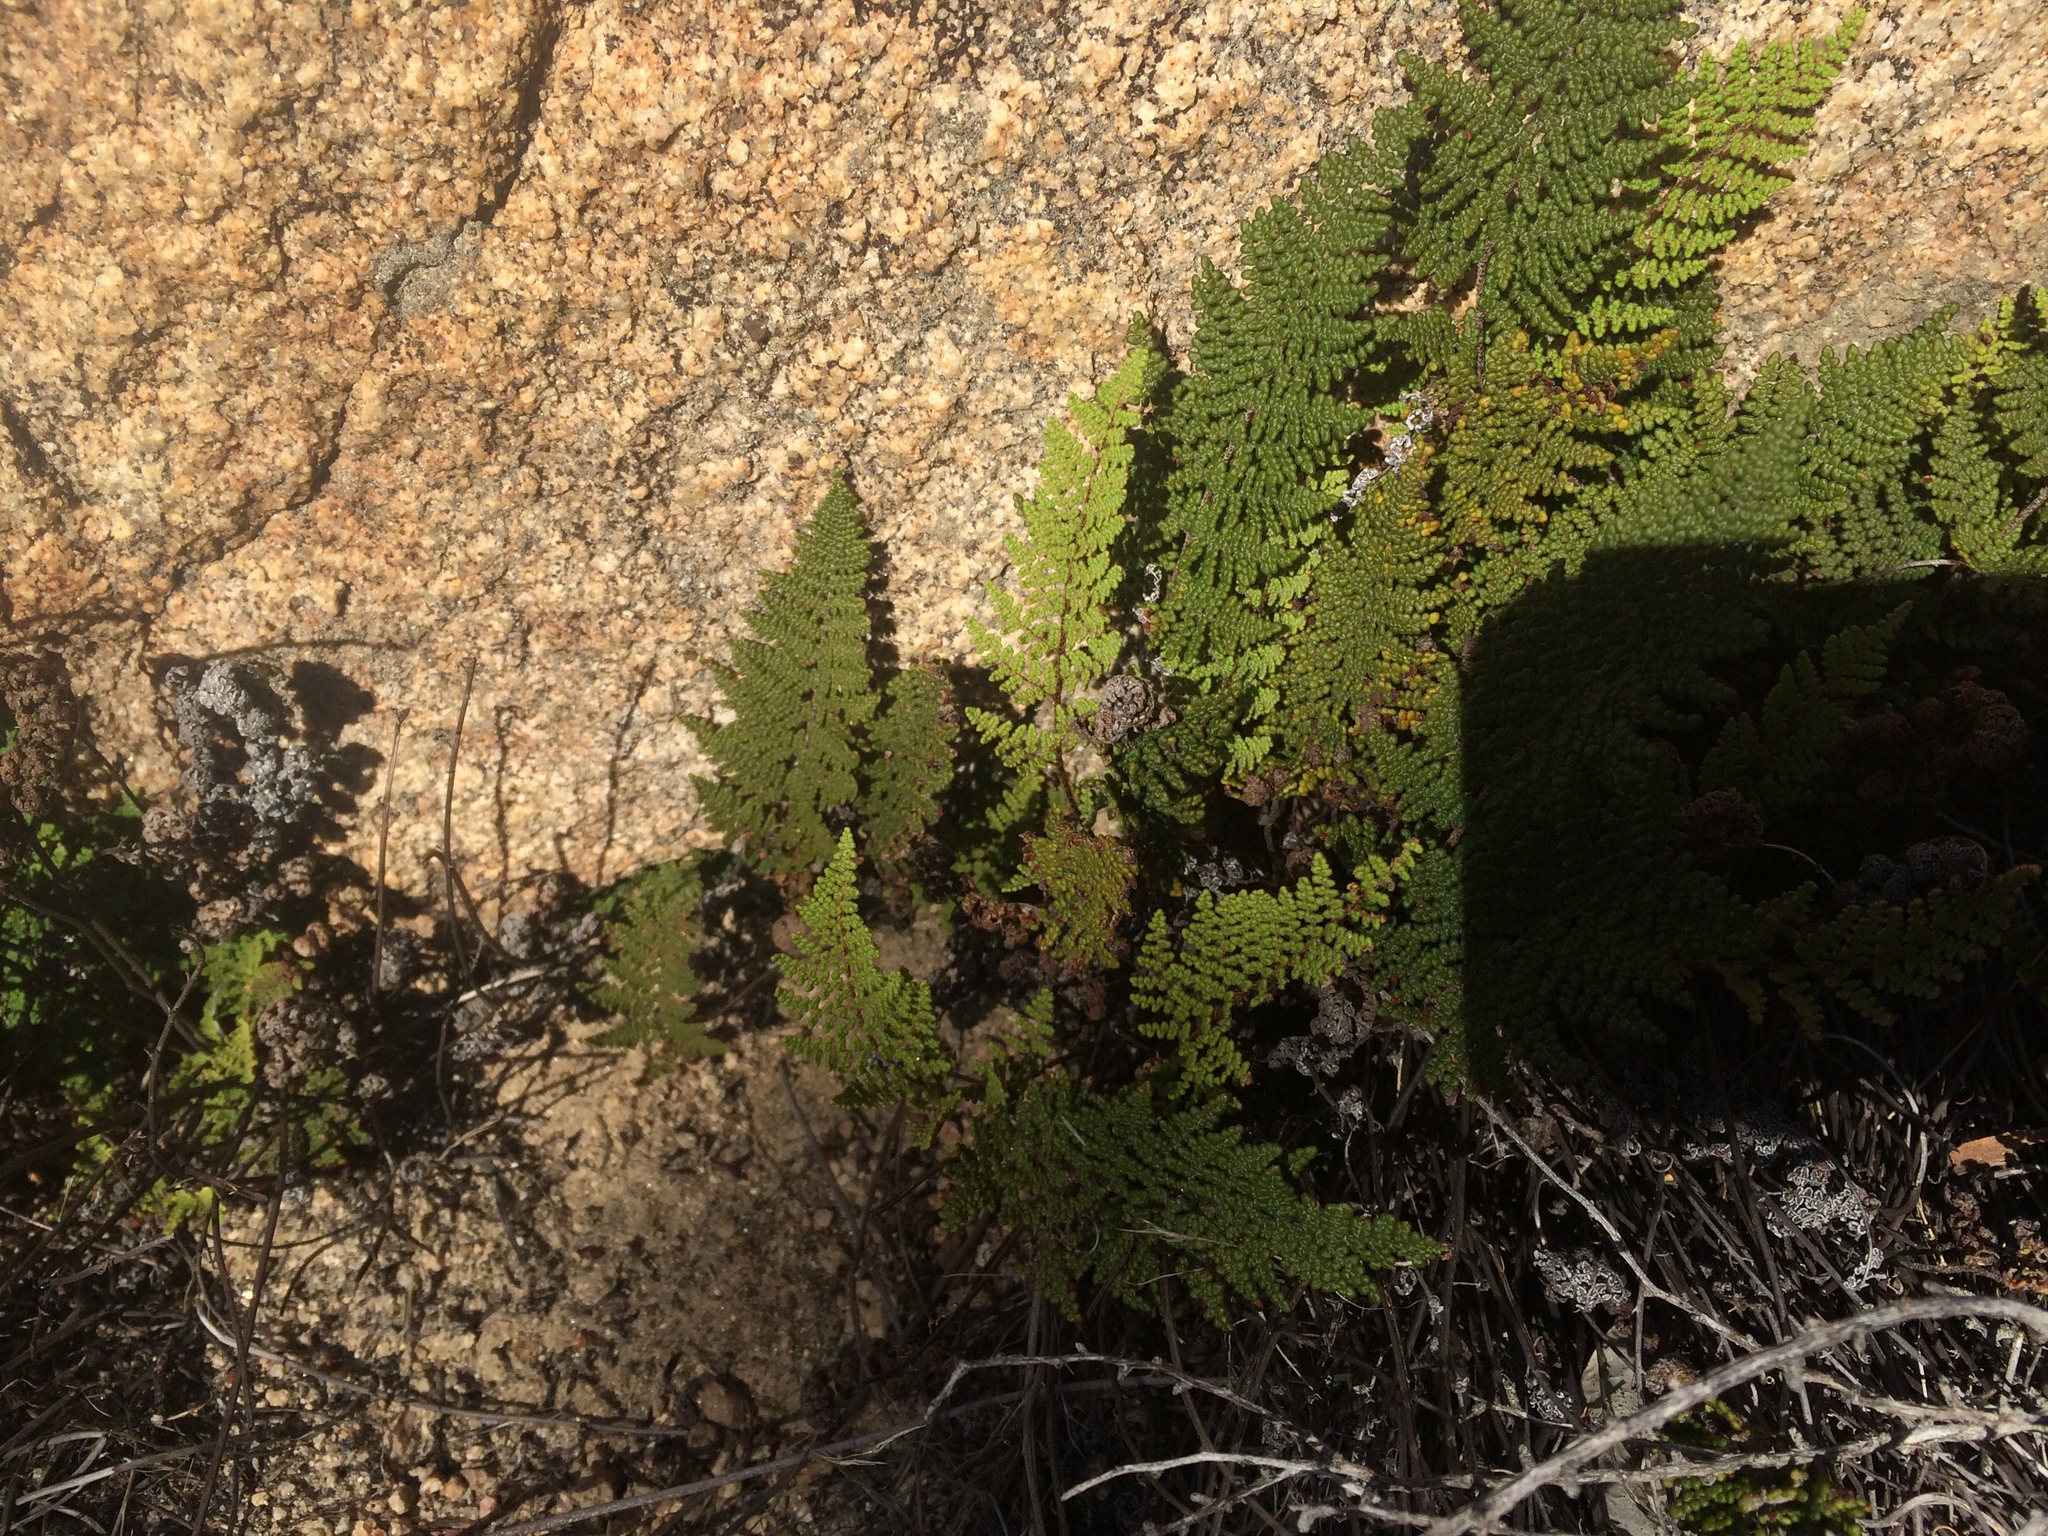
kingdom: Plantae
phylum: Tracheophyta
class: Polypodiopsida
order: Polypodiales
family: Pteridaceae
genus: Myriopteris
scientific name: Myriopteris clevelandii
